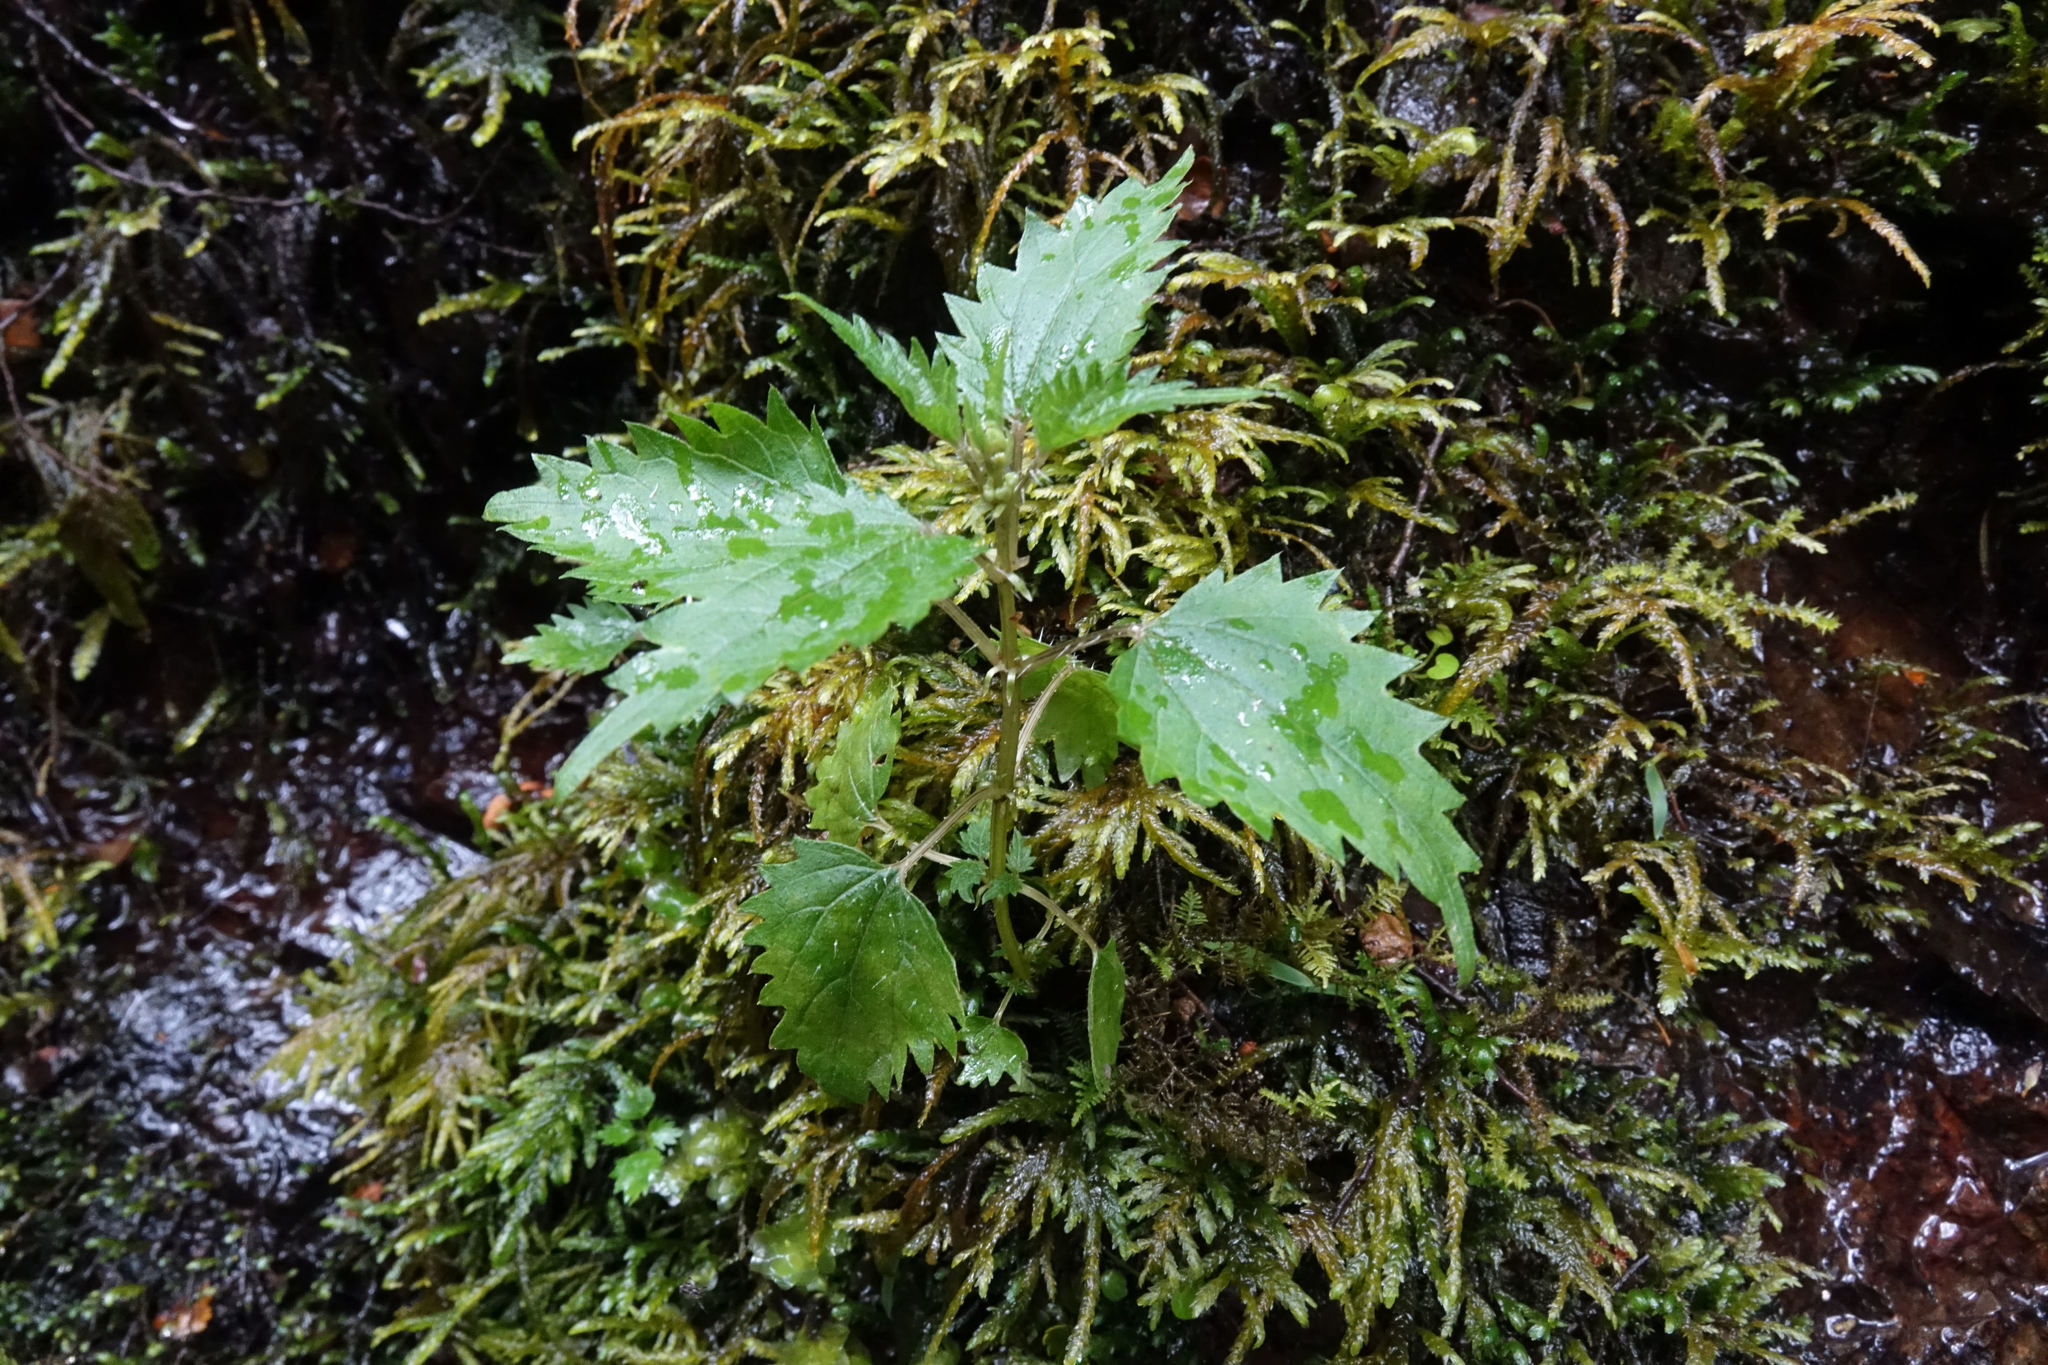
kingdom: Plantae
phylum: Tracheophyta
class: Magnoliopsida
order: Rosales
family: Urticaceae
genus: Urtica
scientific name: Urtica sykesii
